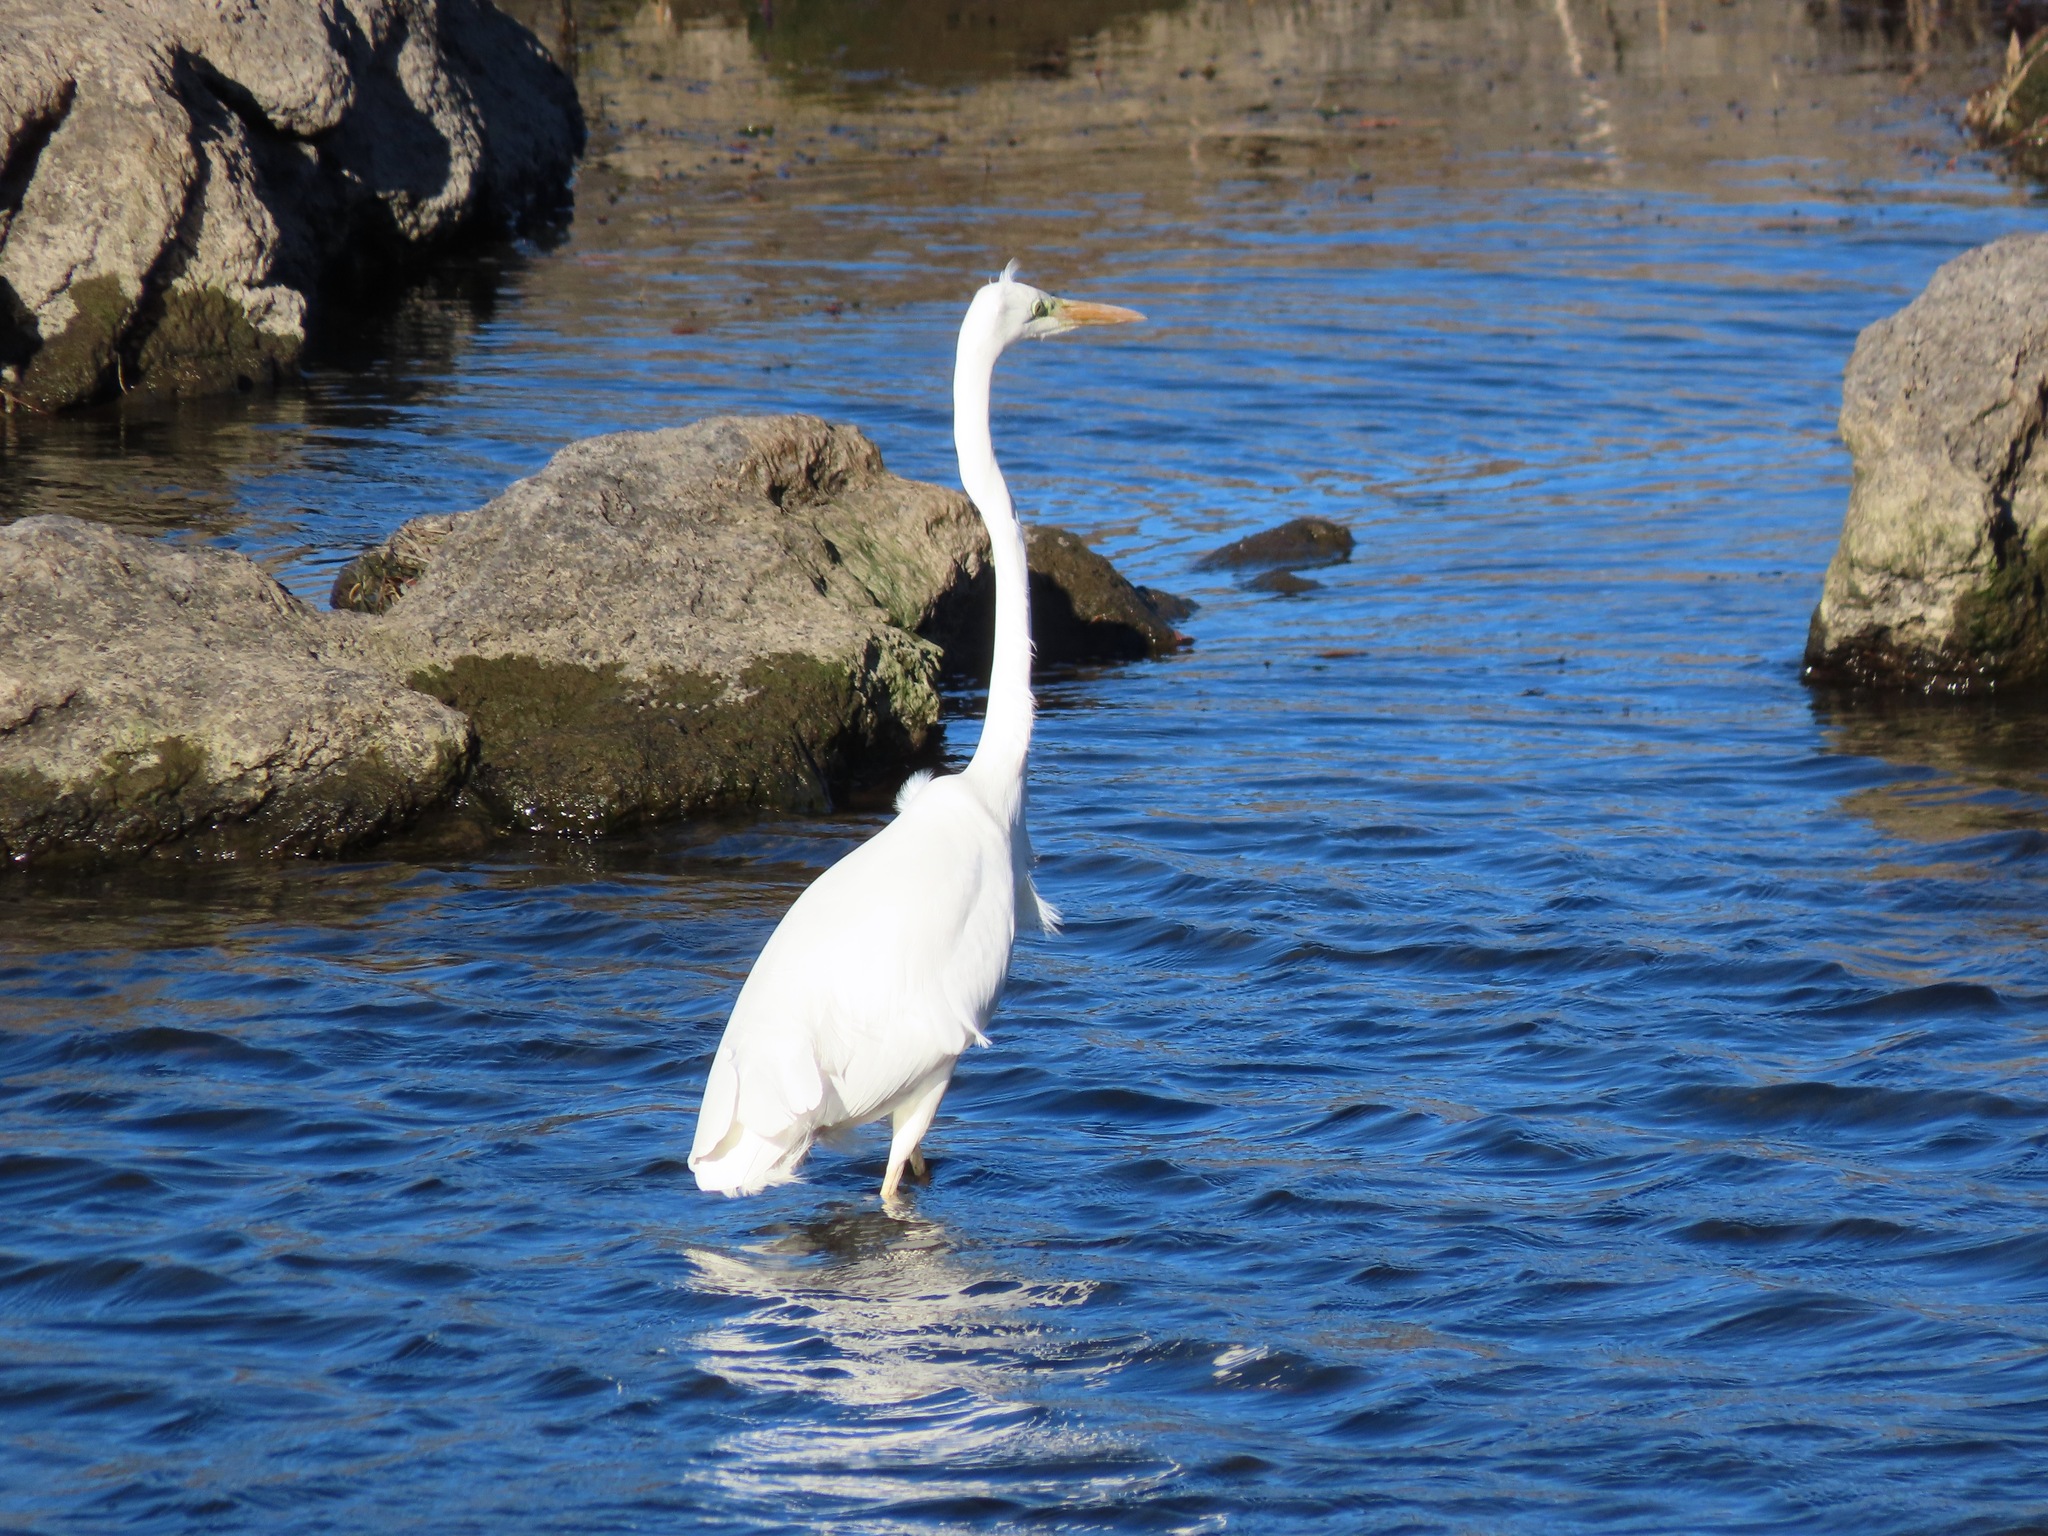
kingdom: Animalia
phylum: Chordata
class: Aves
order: Pelecaniformes
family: Ardeidae
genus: Ardea
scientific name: Ardea alba
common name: Great egret
